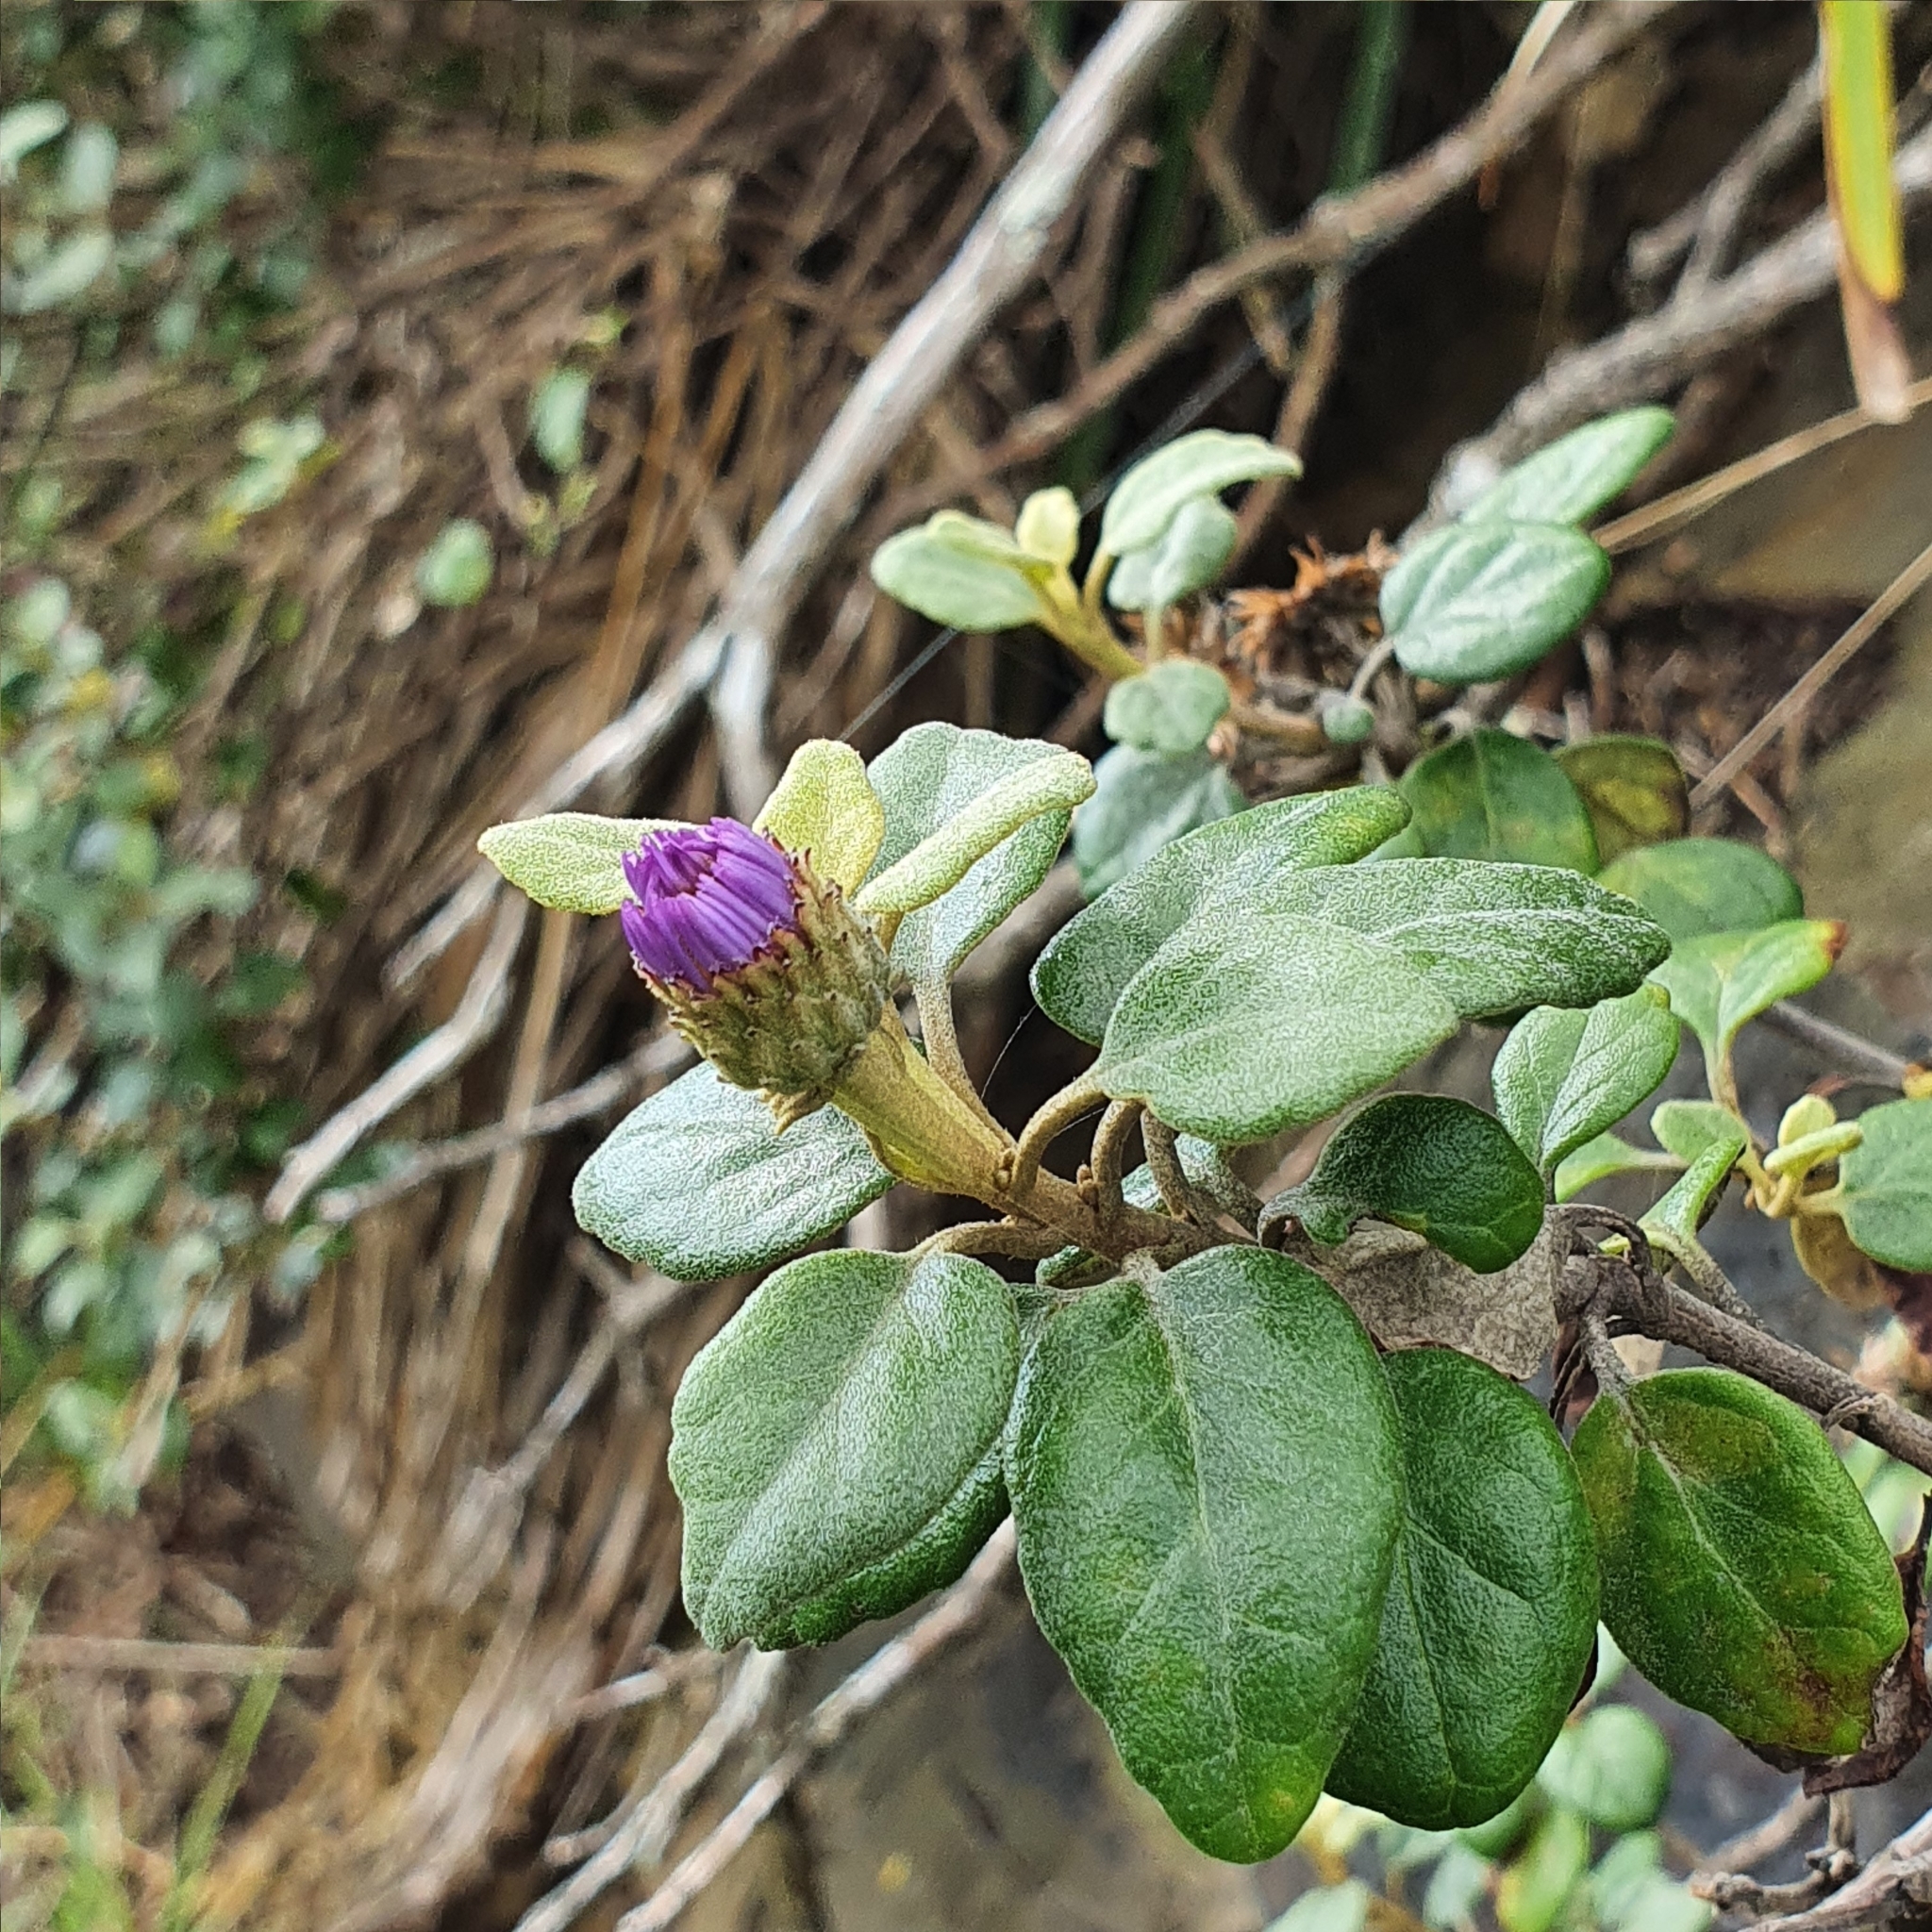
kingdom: Plantae
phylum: Tracheophyta
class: Magnoliopsida
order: Asterales
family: Asteraceae
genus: Olearia
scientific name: Olearia tomentosa
